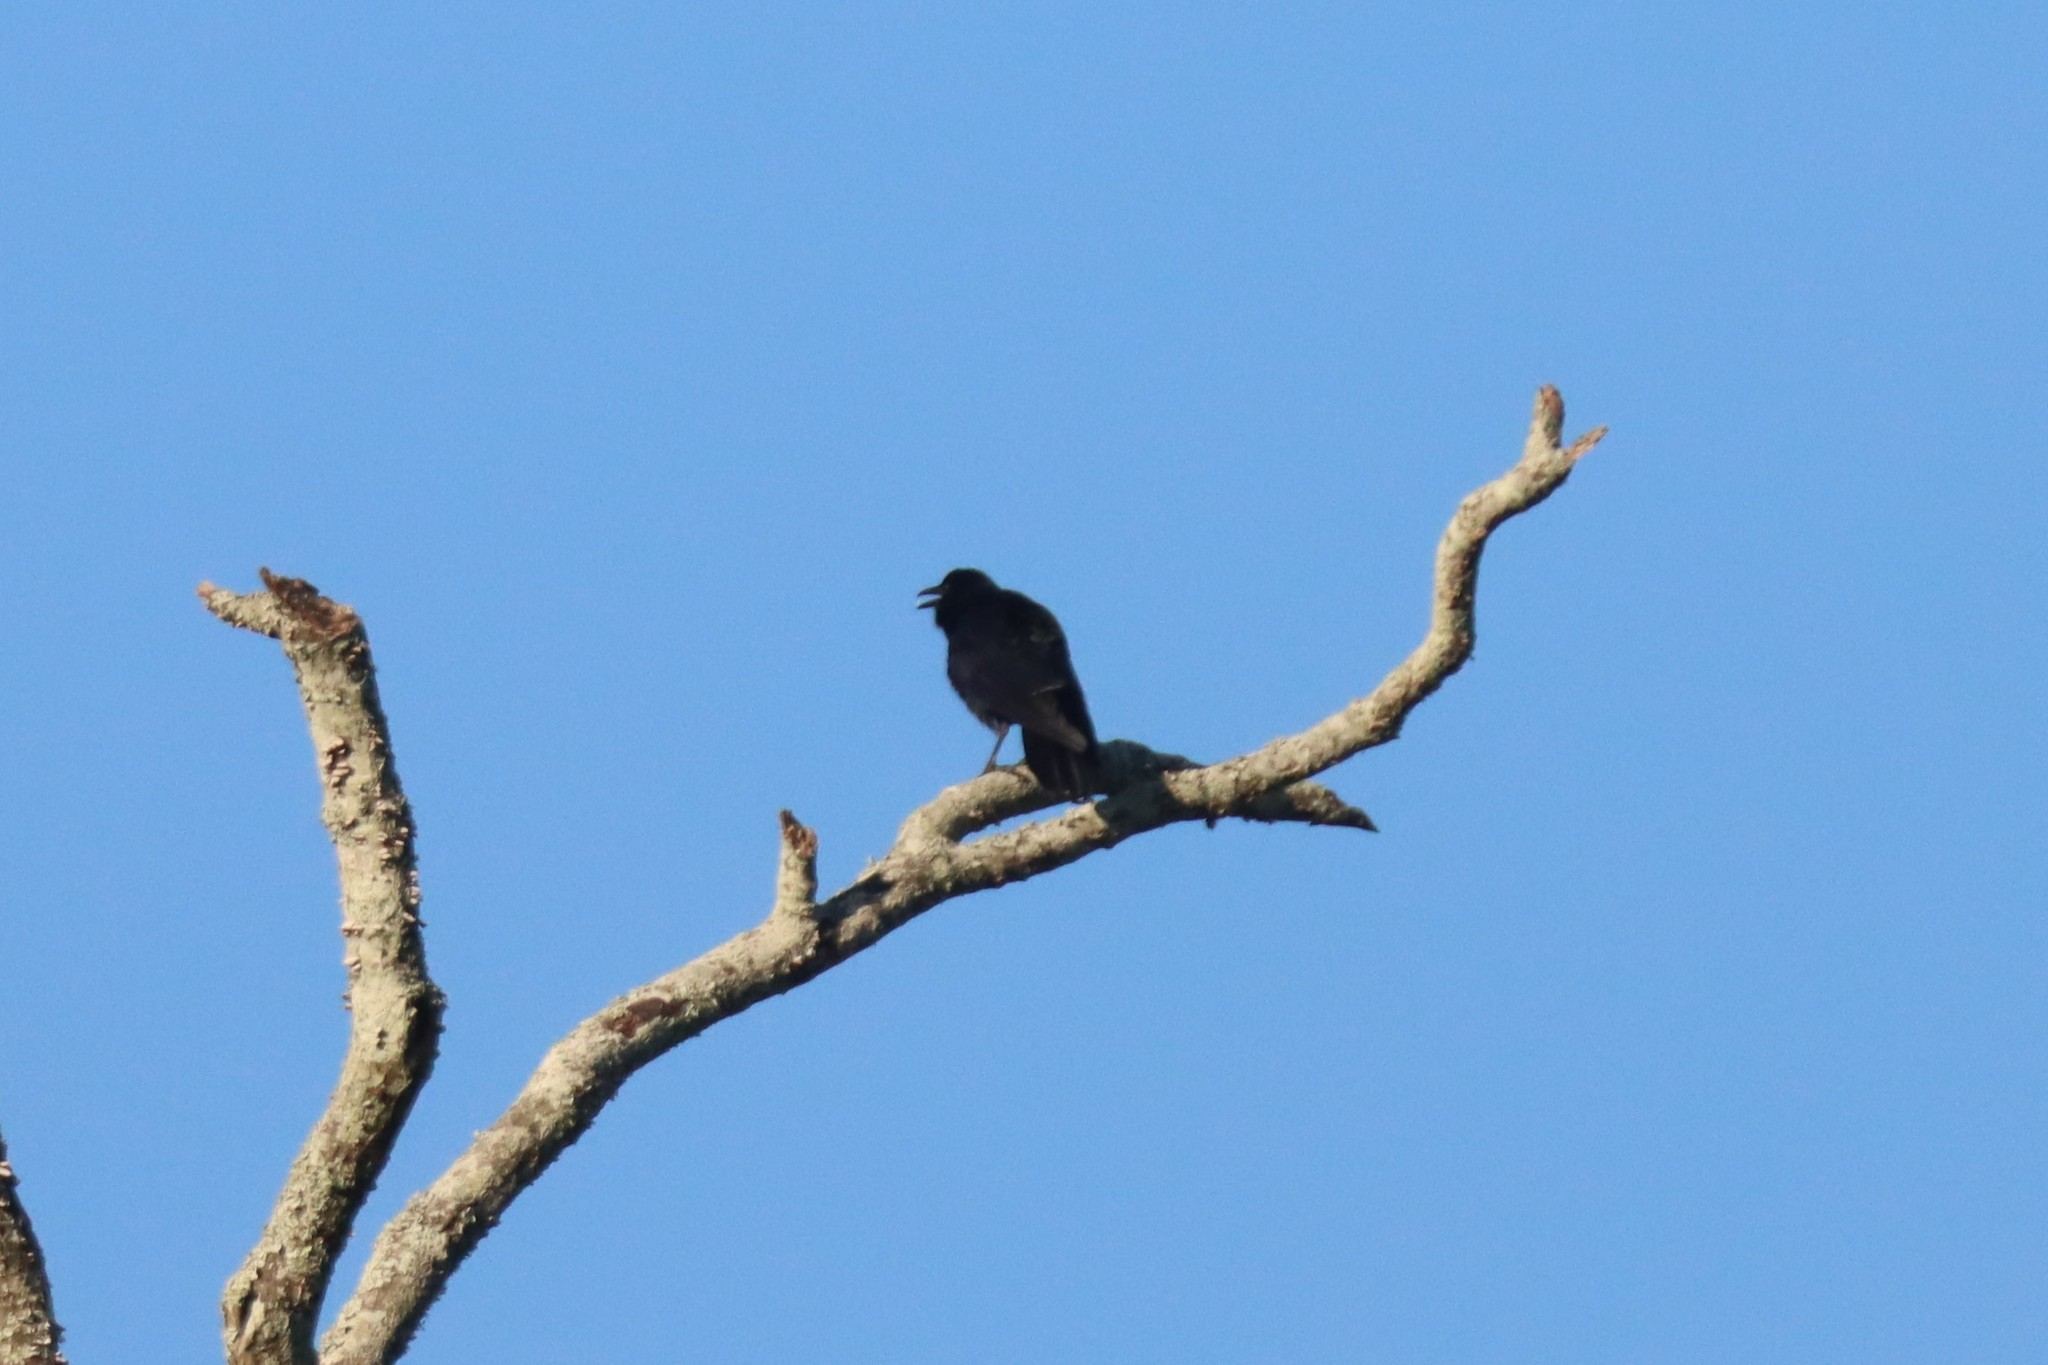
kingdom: Animalia
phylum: Chordata
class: Aves
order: Passeriformes
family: Corvidae
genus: Corvus
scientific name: Corvus
